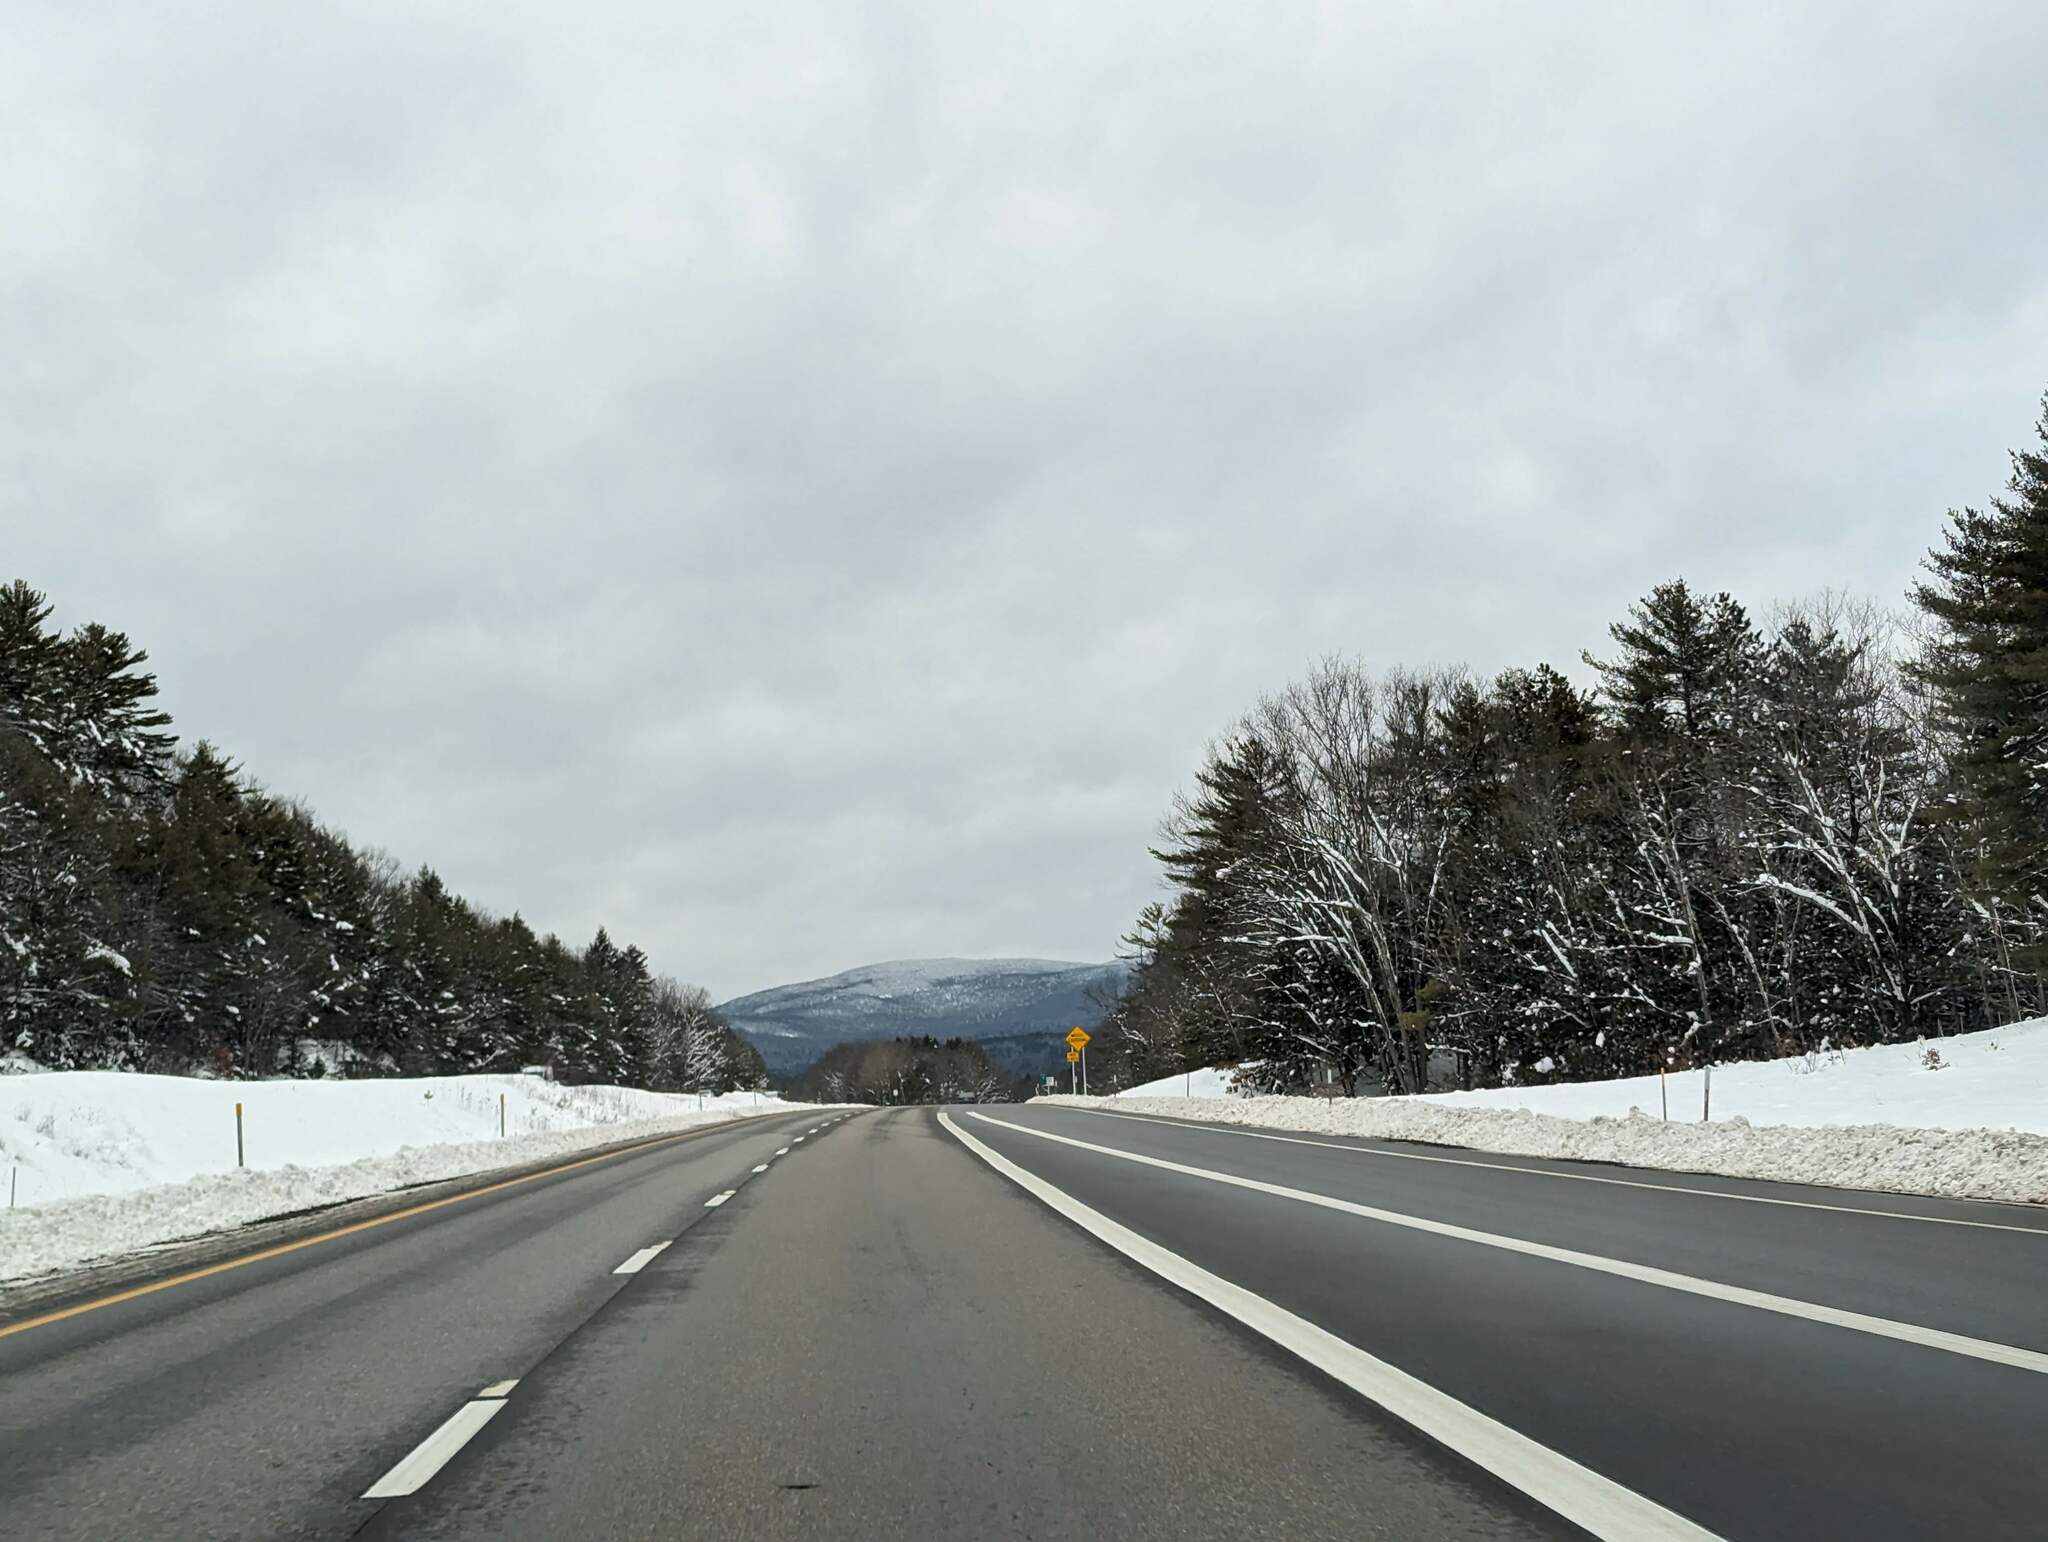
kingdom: Plantae
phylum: Tracheophyta
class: Pinopsida
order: Pinales
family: Pinaceae
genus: Pinus
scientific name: Pinus strobus
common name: Weymouth pine
